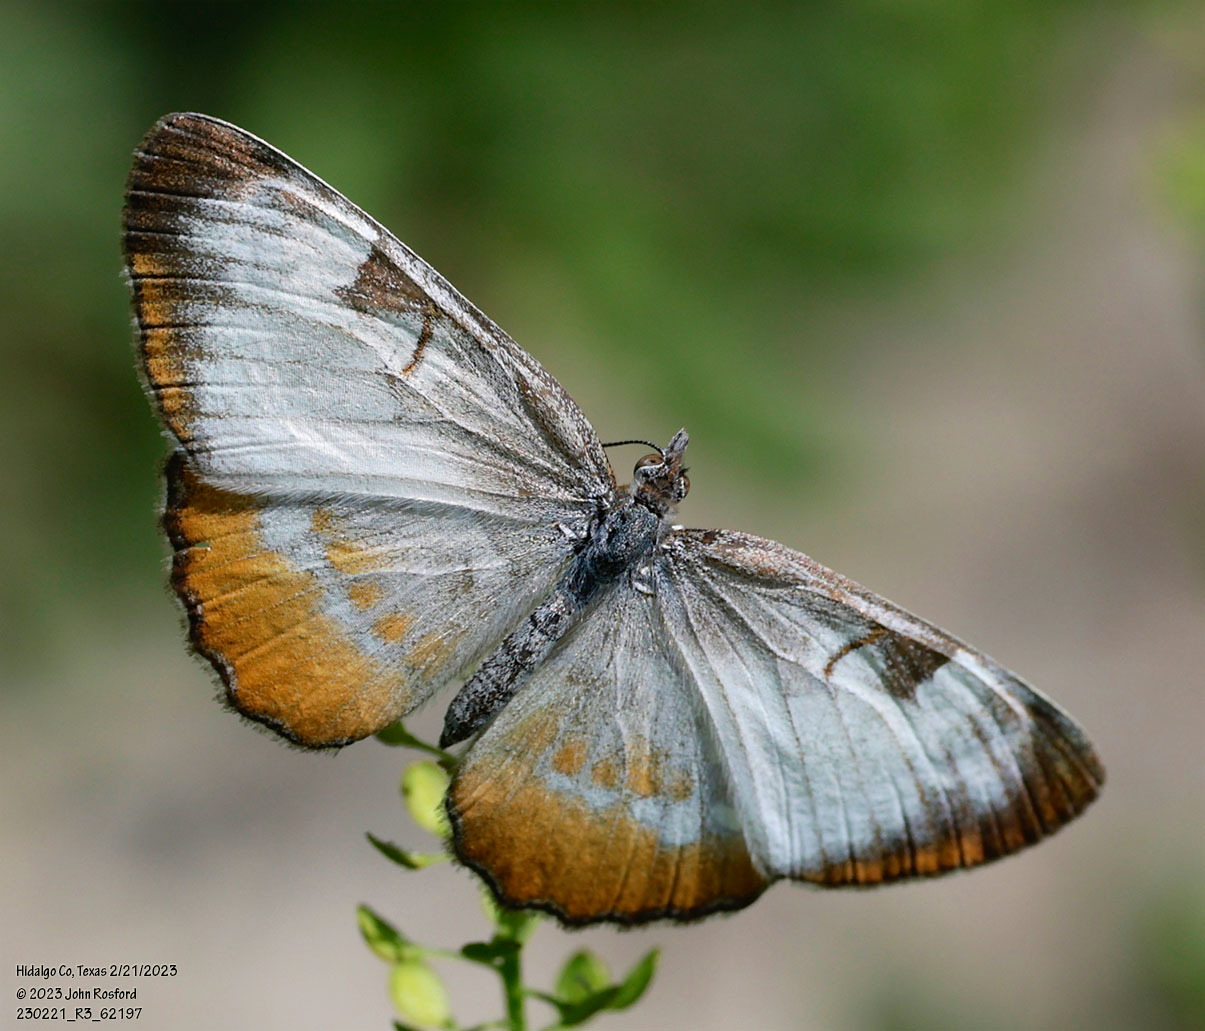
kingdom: Animalia
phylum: Arthropoda
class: Insecta
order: Lepidoptera
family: Nymphalidae
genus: Mestra
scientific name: Mestra amymone
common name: Common mestra
